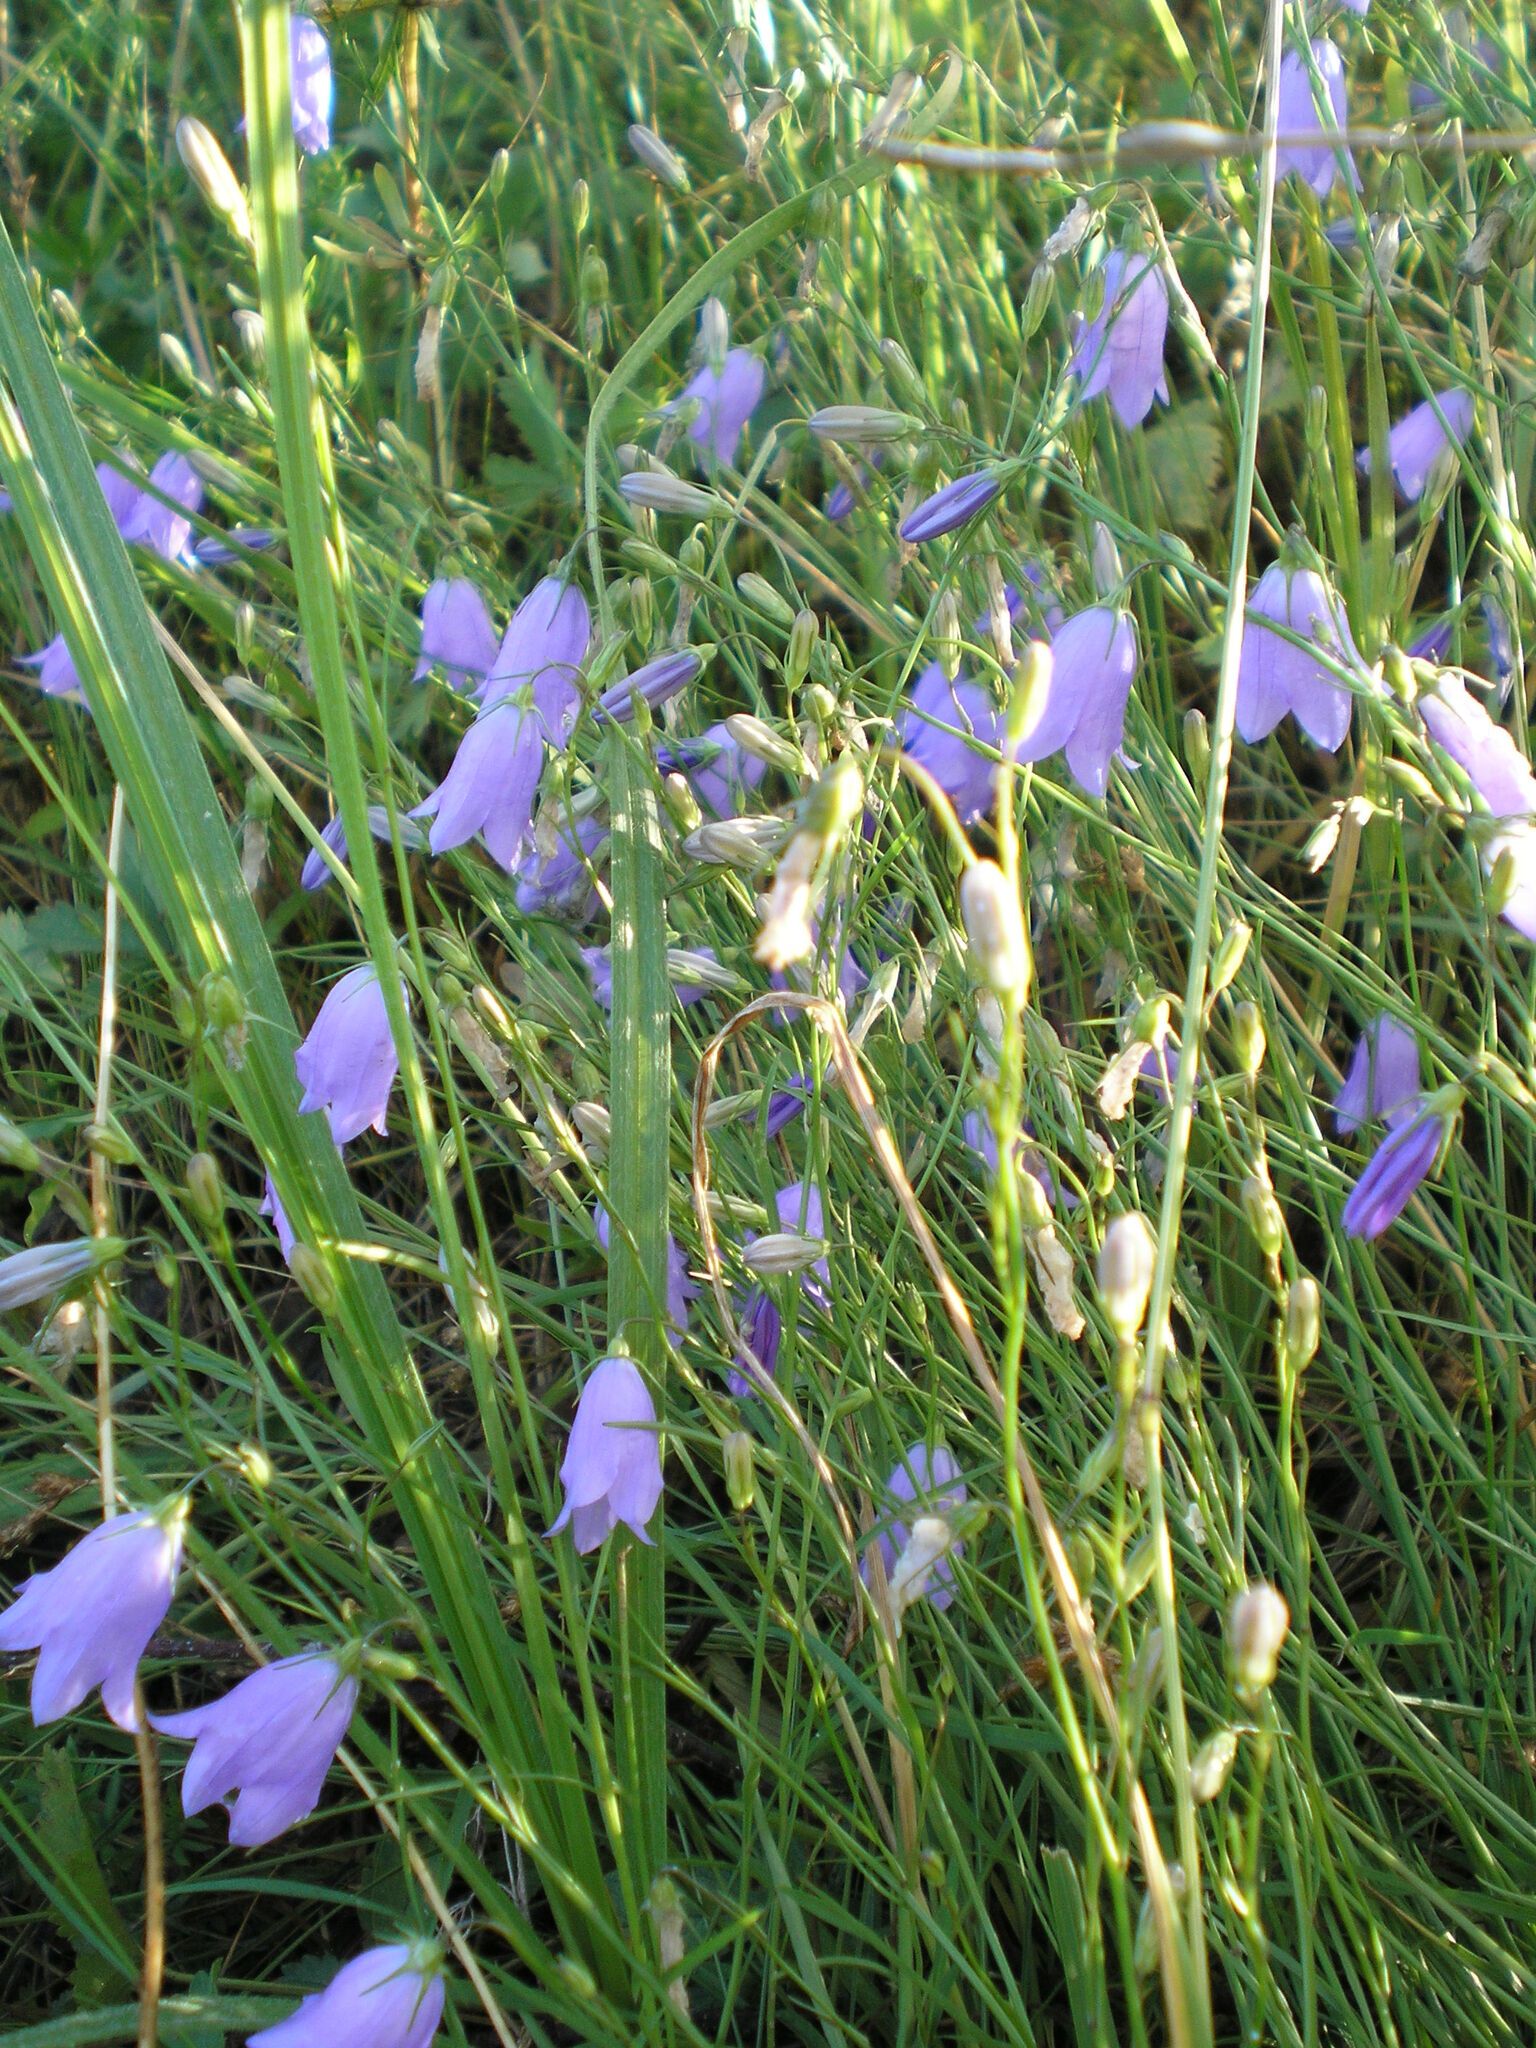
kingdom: Plantae
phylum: Tracheophyta
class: Magnoliopsida
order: Asterales
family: Campanulaceae
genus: Campanula
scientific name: Campanula rotundifolia
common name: Harebell
